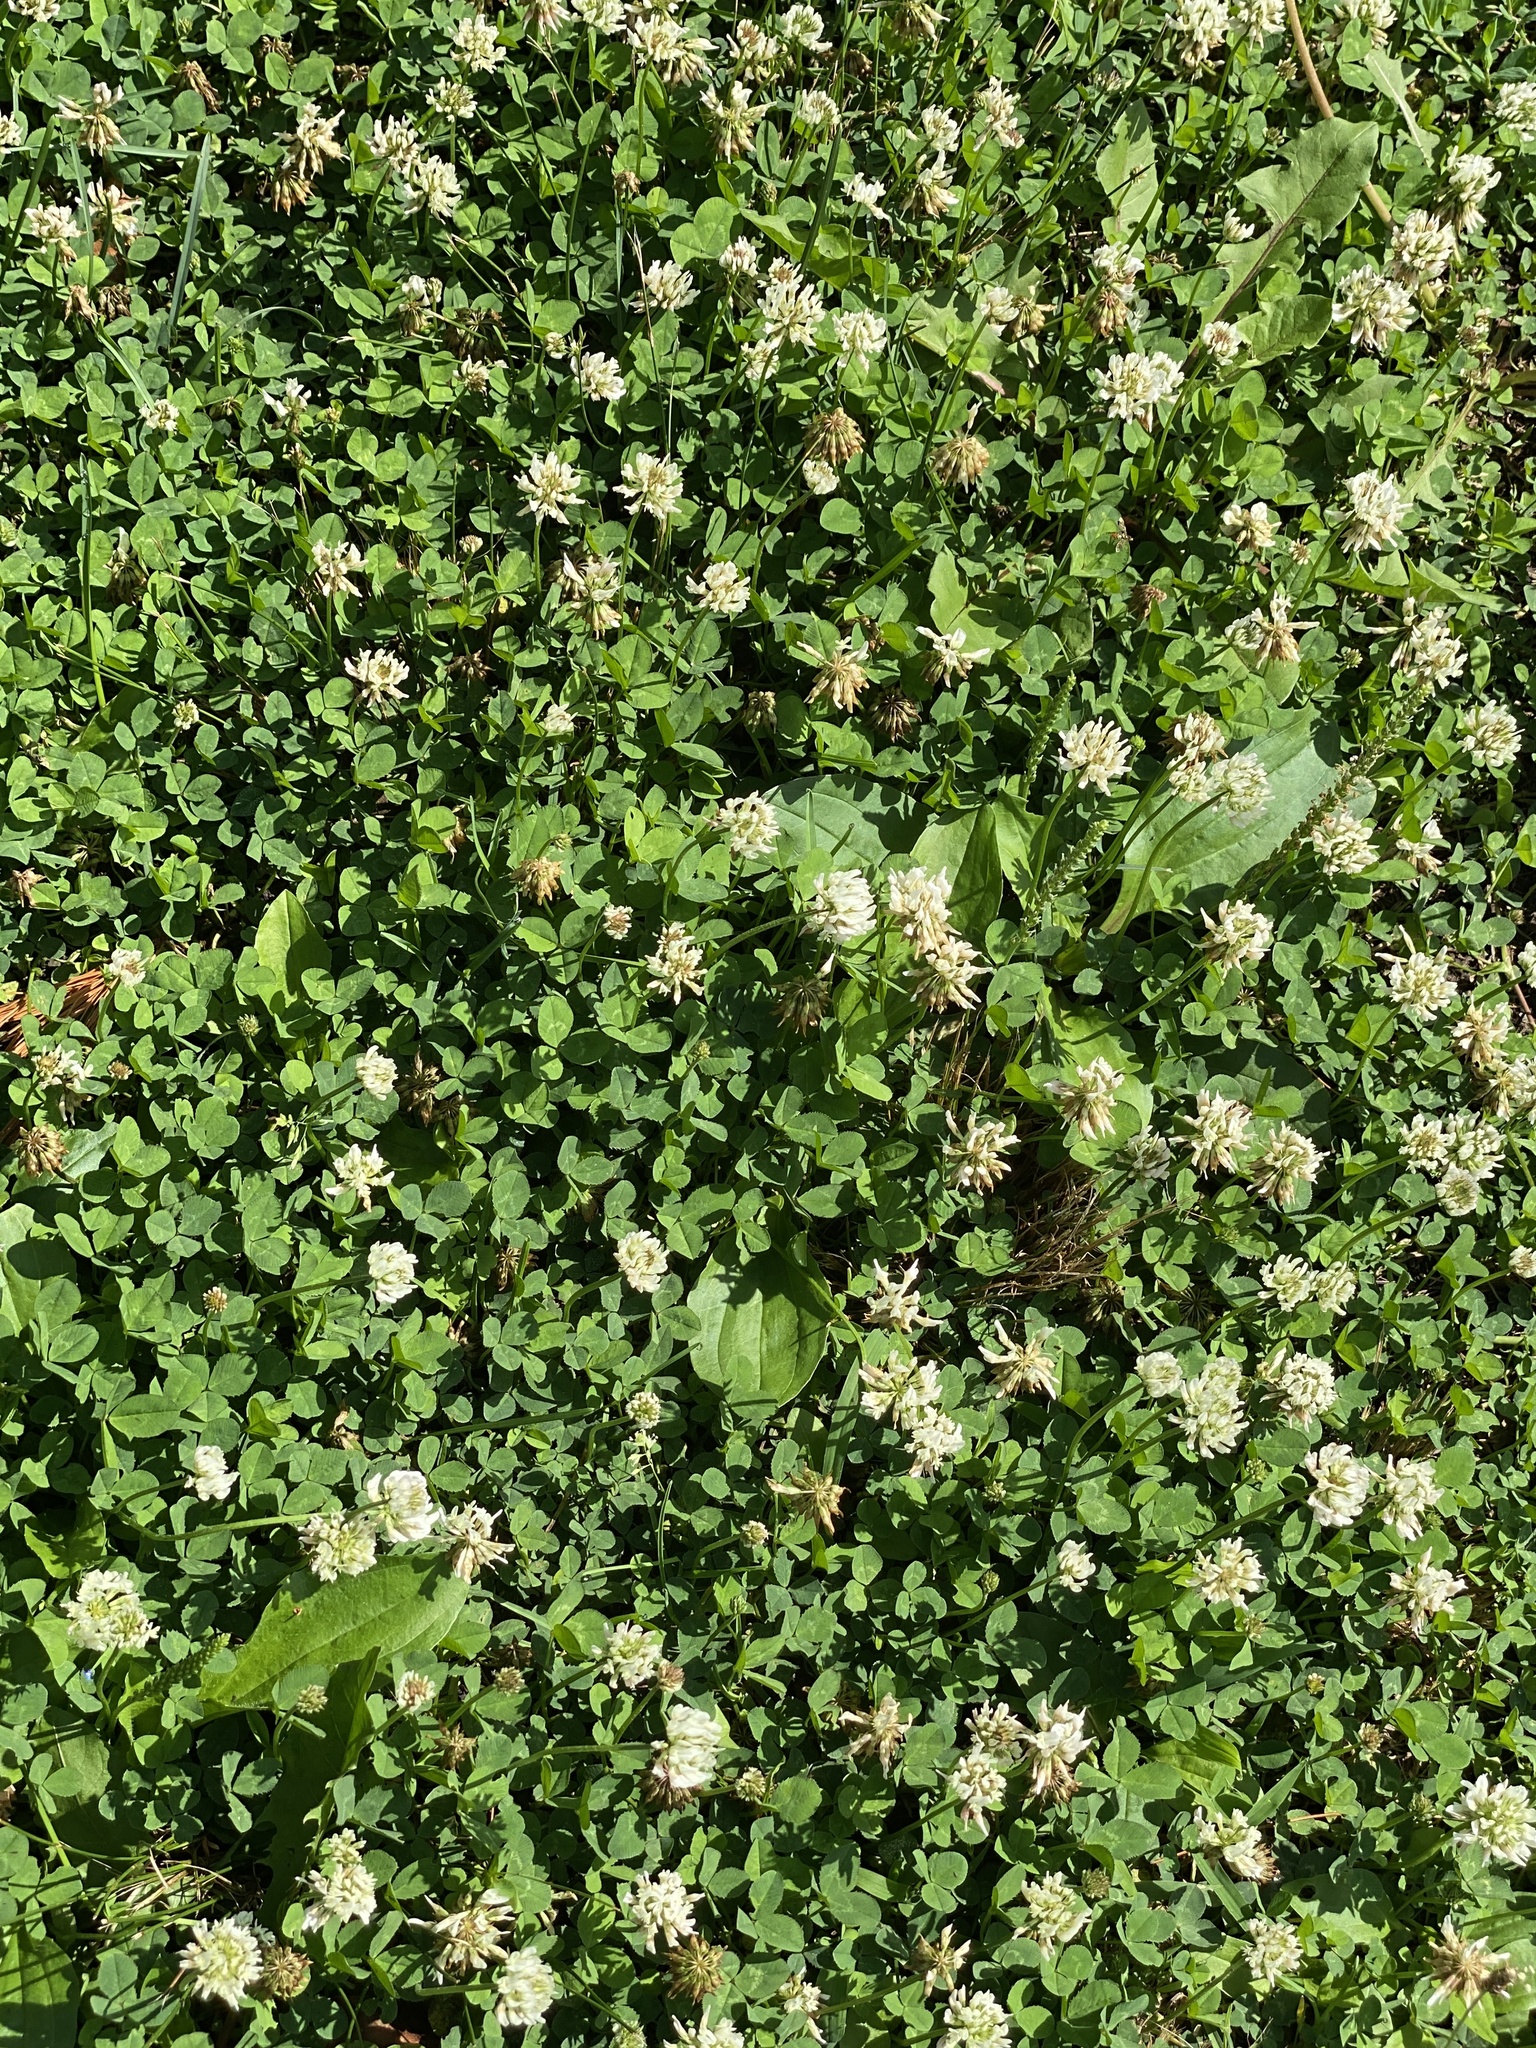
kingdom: Plantae
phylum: Tracheophyta
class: Magnoliopsida
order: Fabales
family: Fabaceae
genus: Trifolium
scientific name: Trifolium repens
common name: White clover
